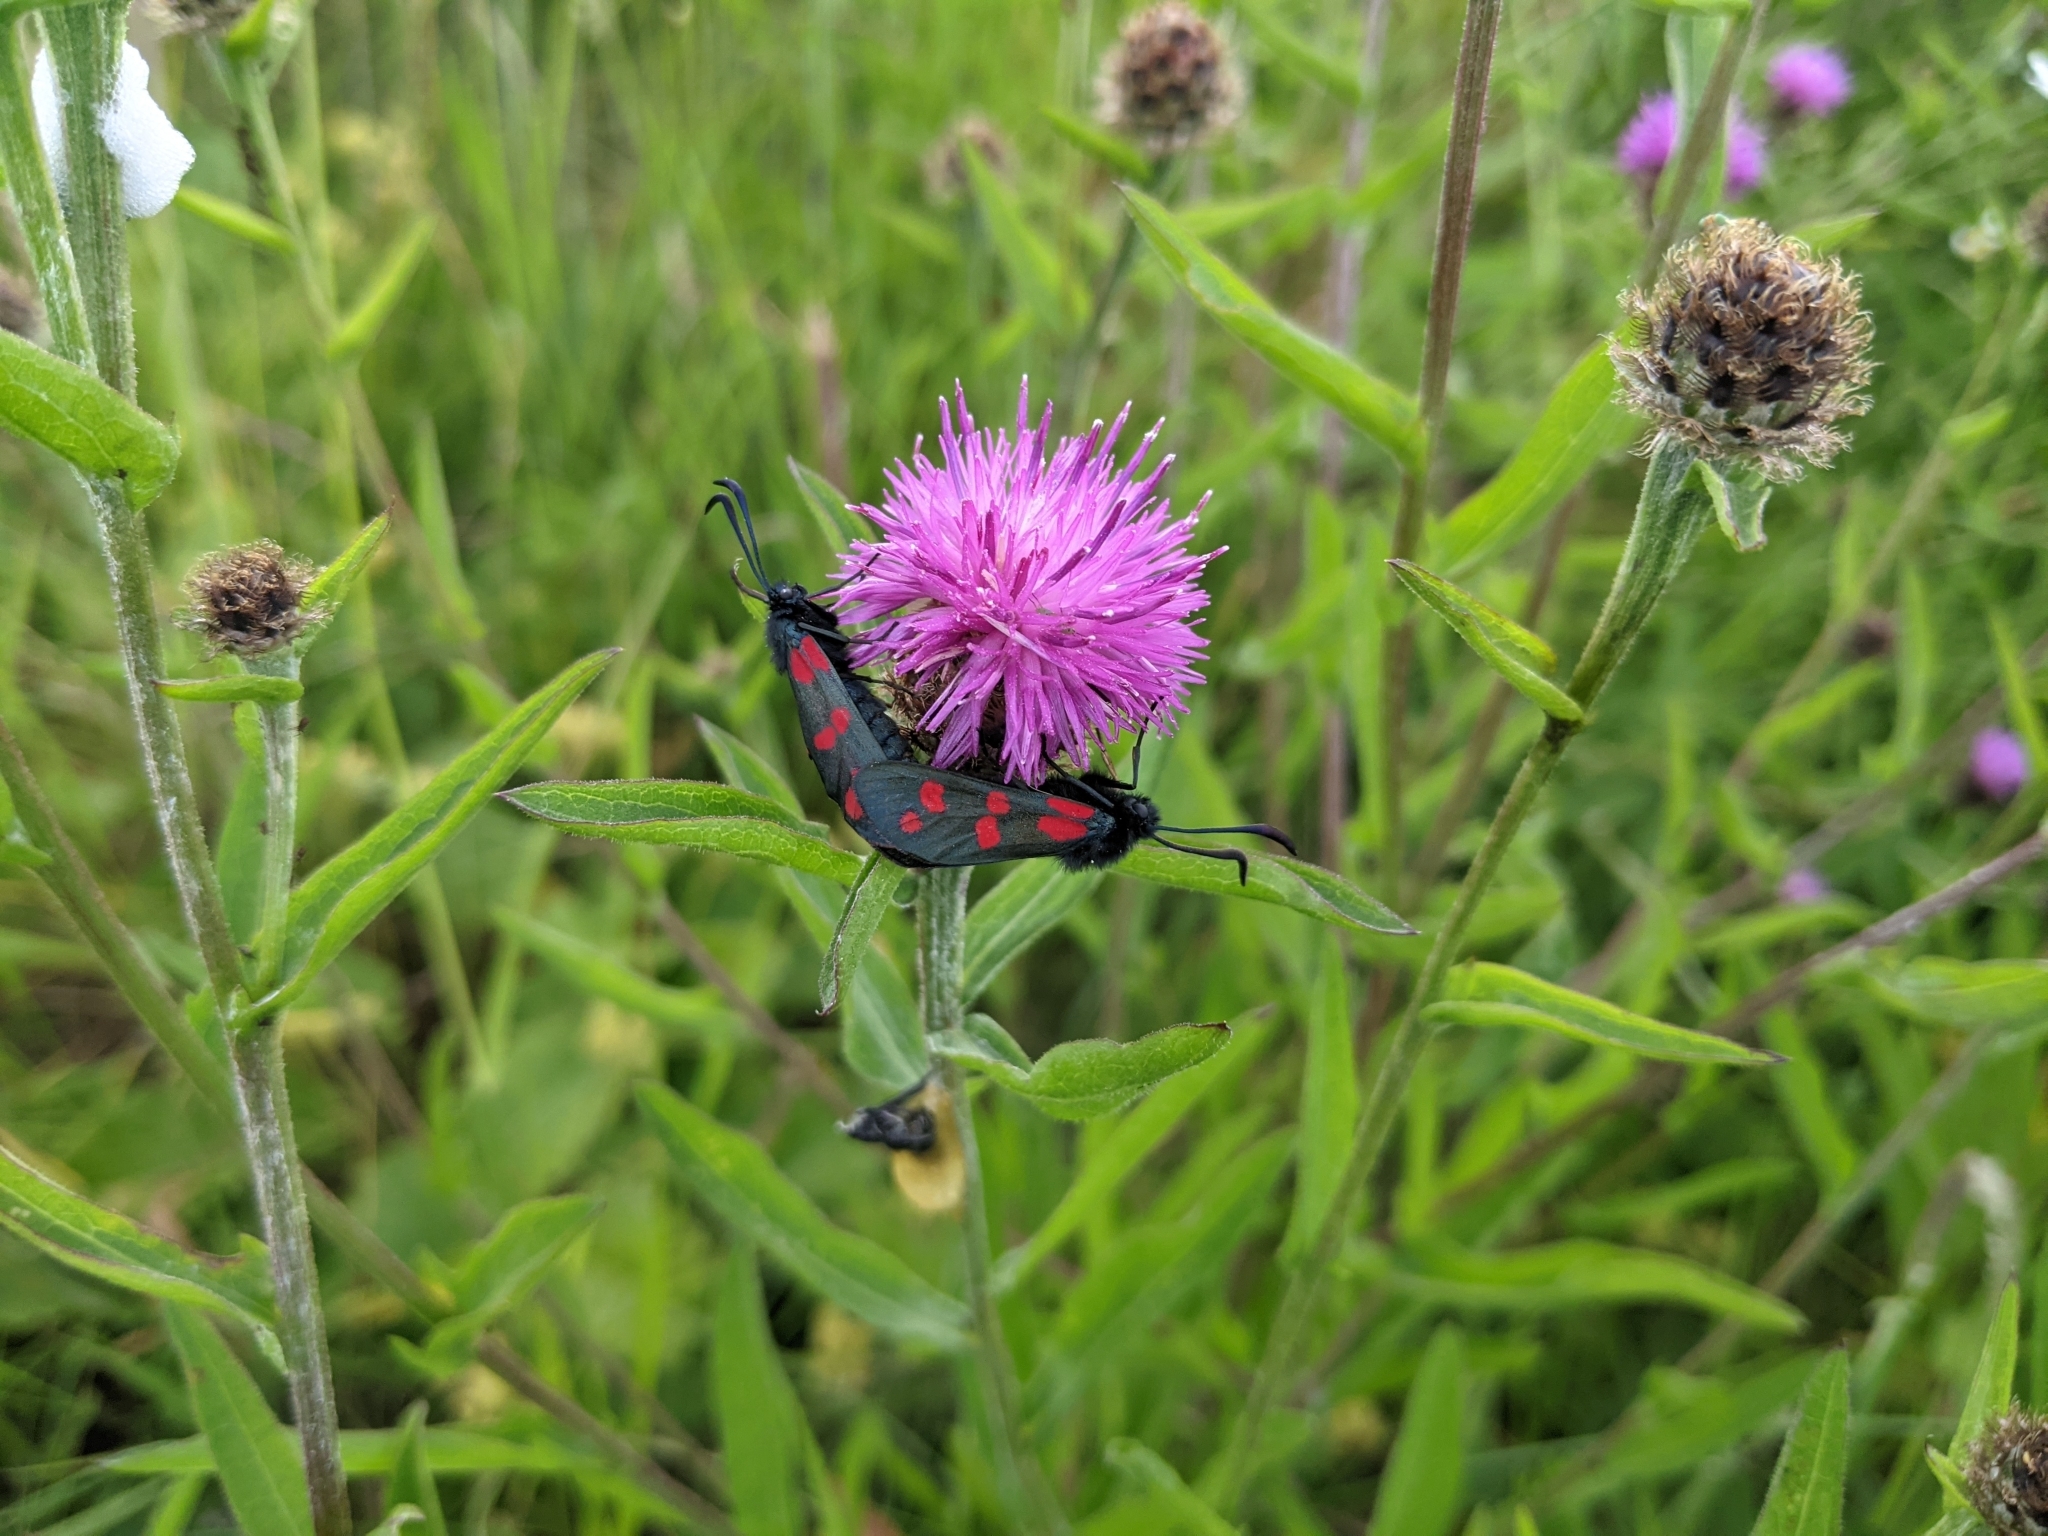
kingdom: Animalia
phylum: Arthropoda
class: Insecta
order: Lepidoptera
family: Zygaenidae
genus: Zygaena
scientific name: Zygaena filipendulae
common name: Six-spot burnet
